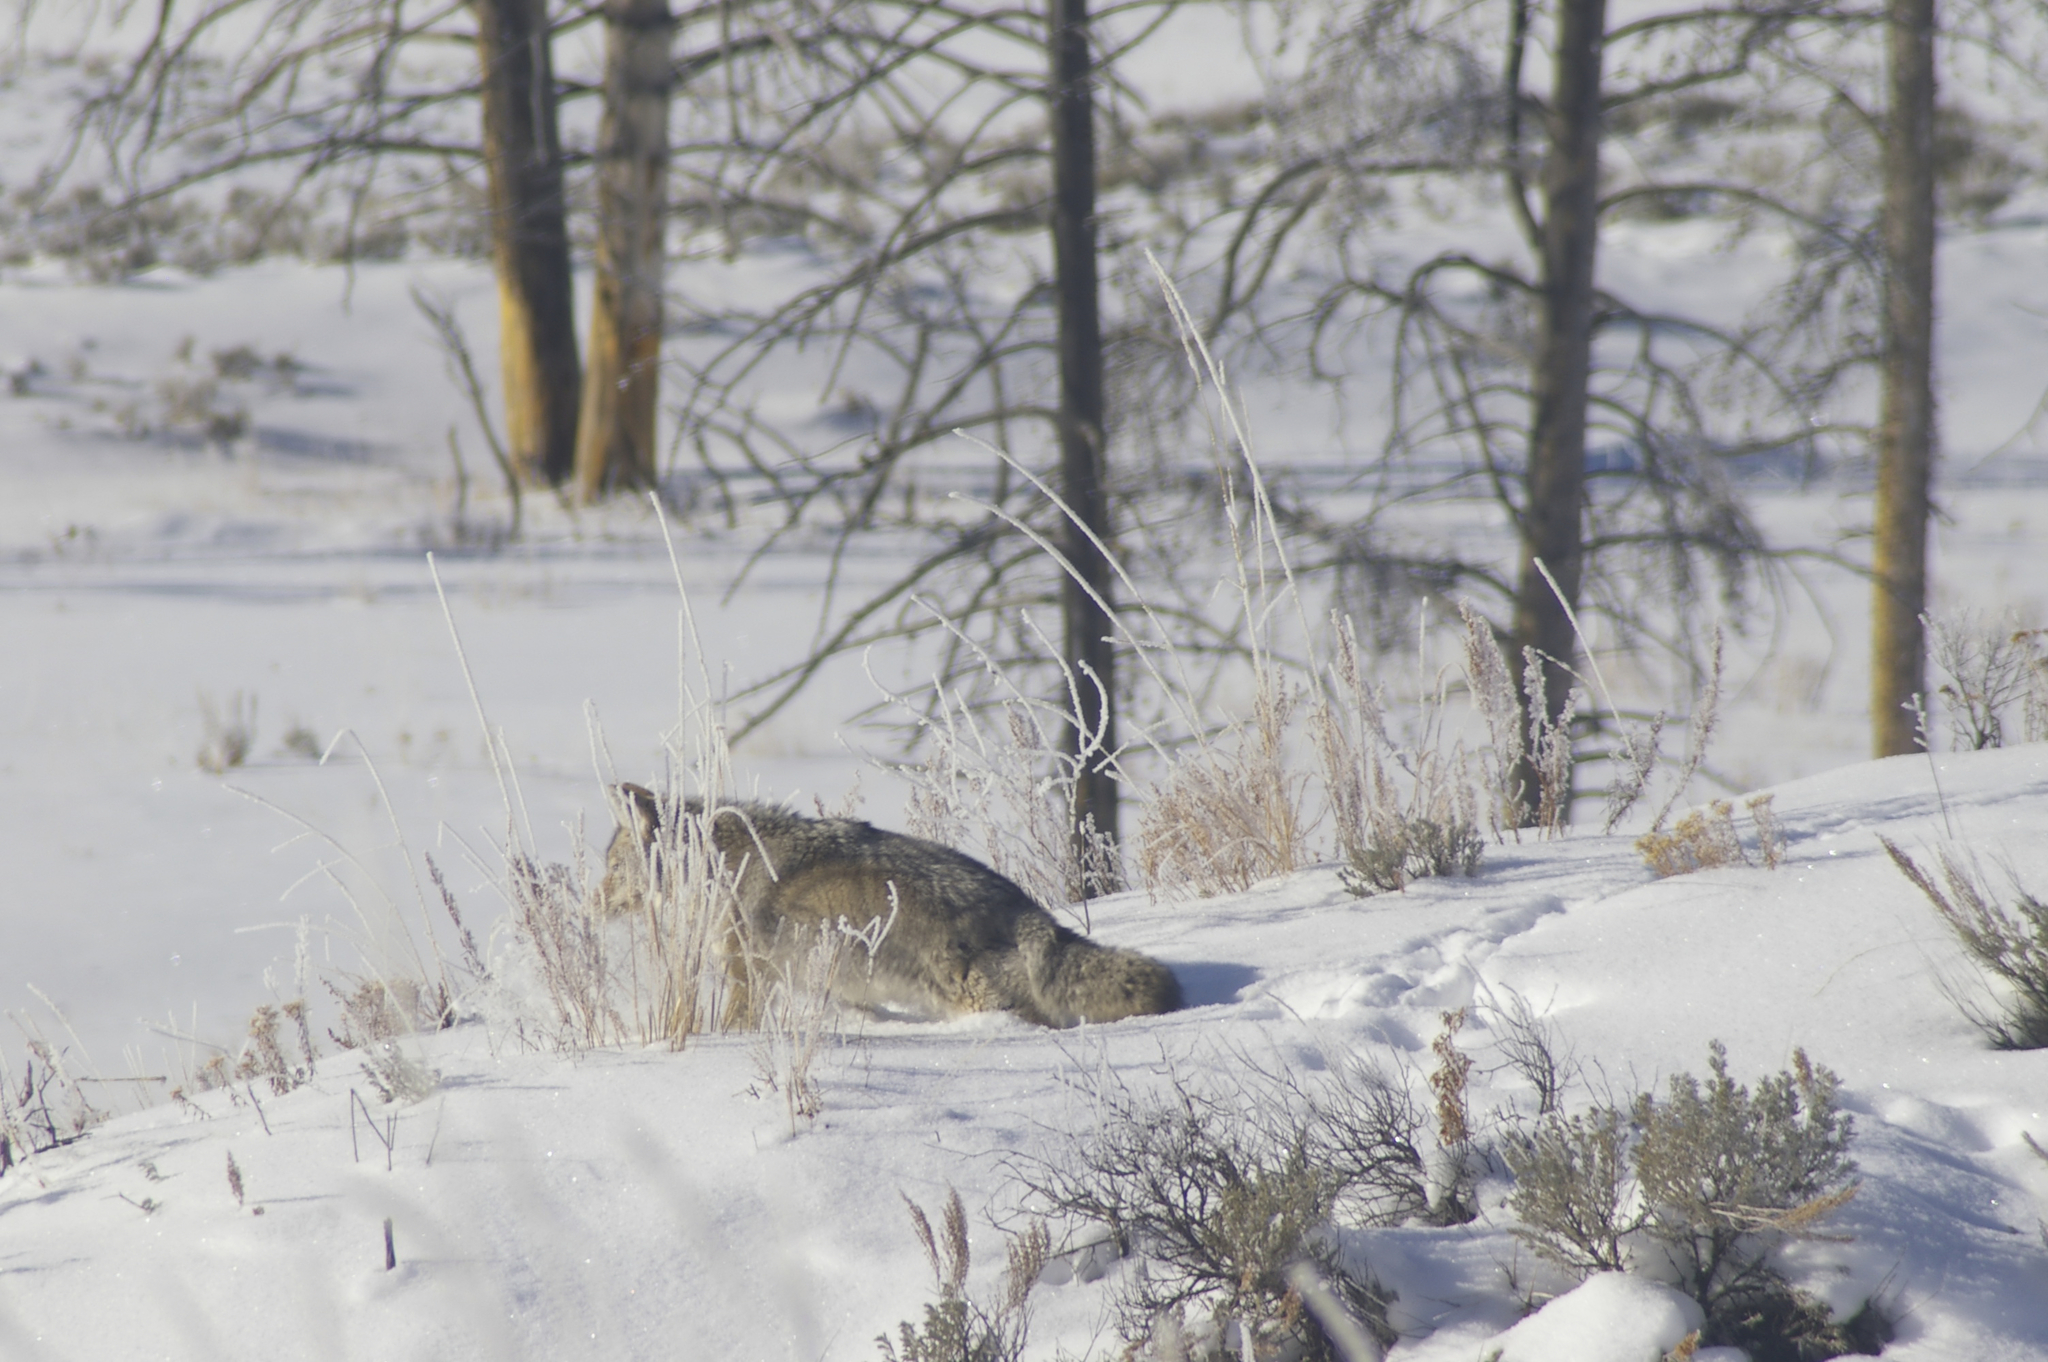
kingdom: Animalia
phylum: Chordata
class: Mammalia
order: Carnivora
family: Canidae
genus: Canis
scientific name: Canis latrans
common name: Coyote
